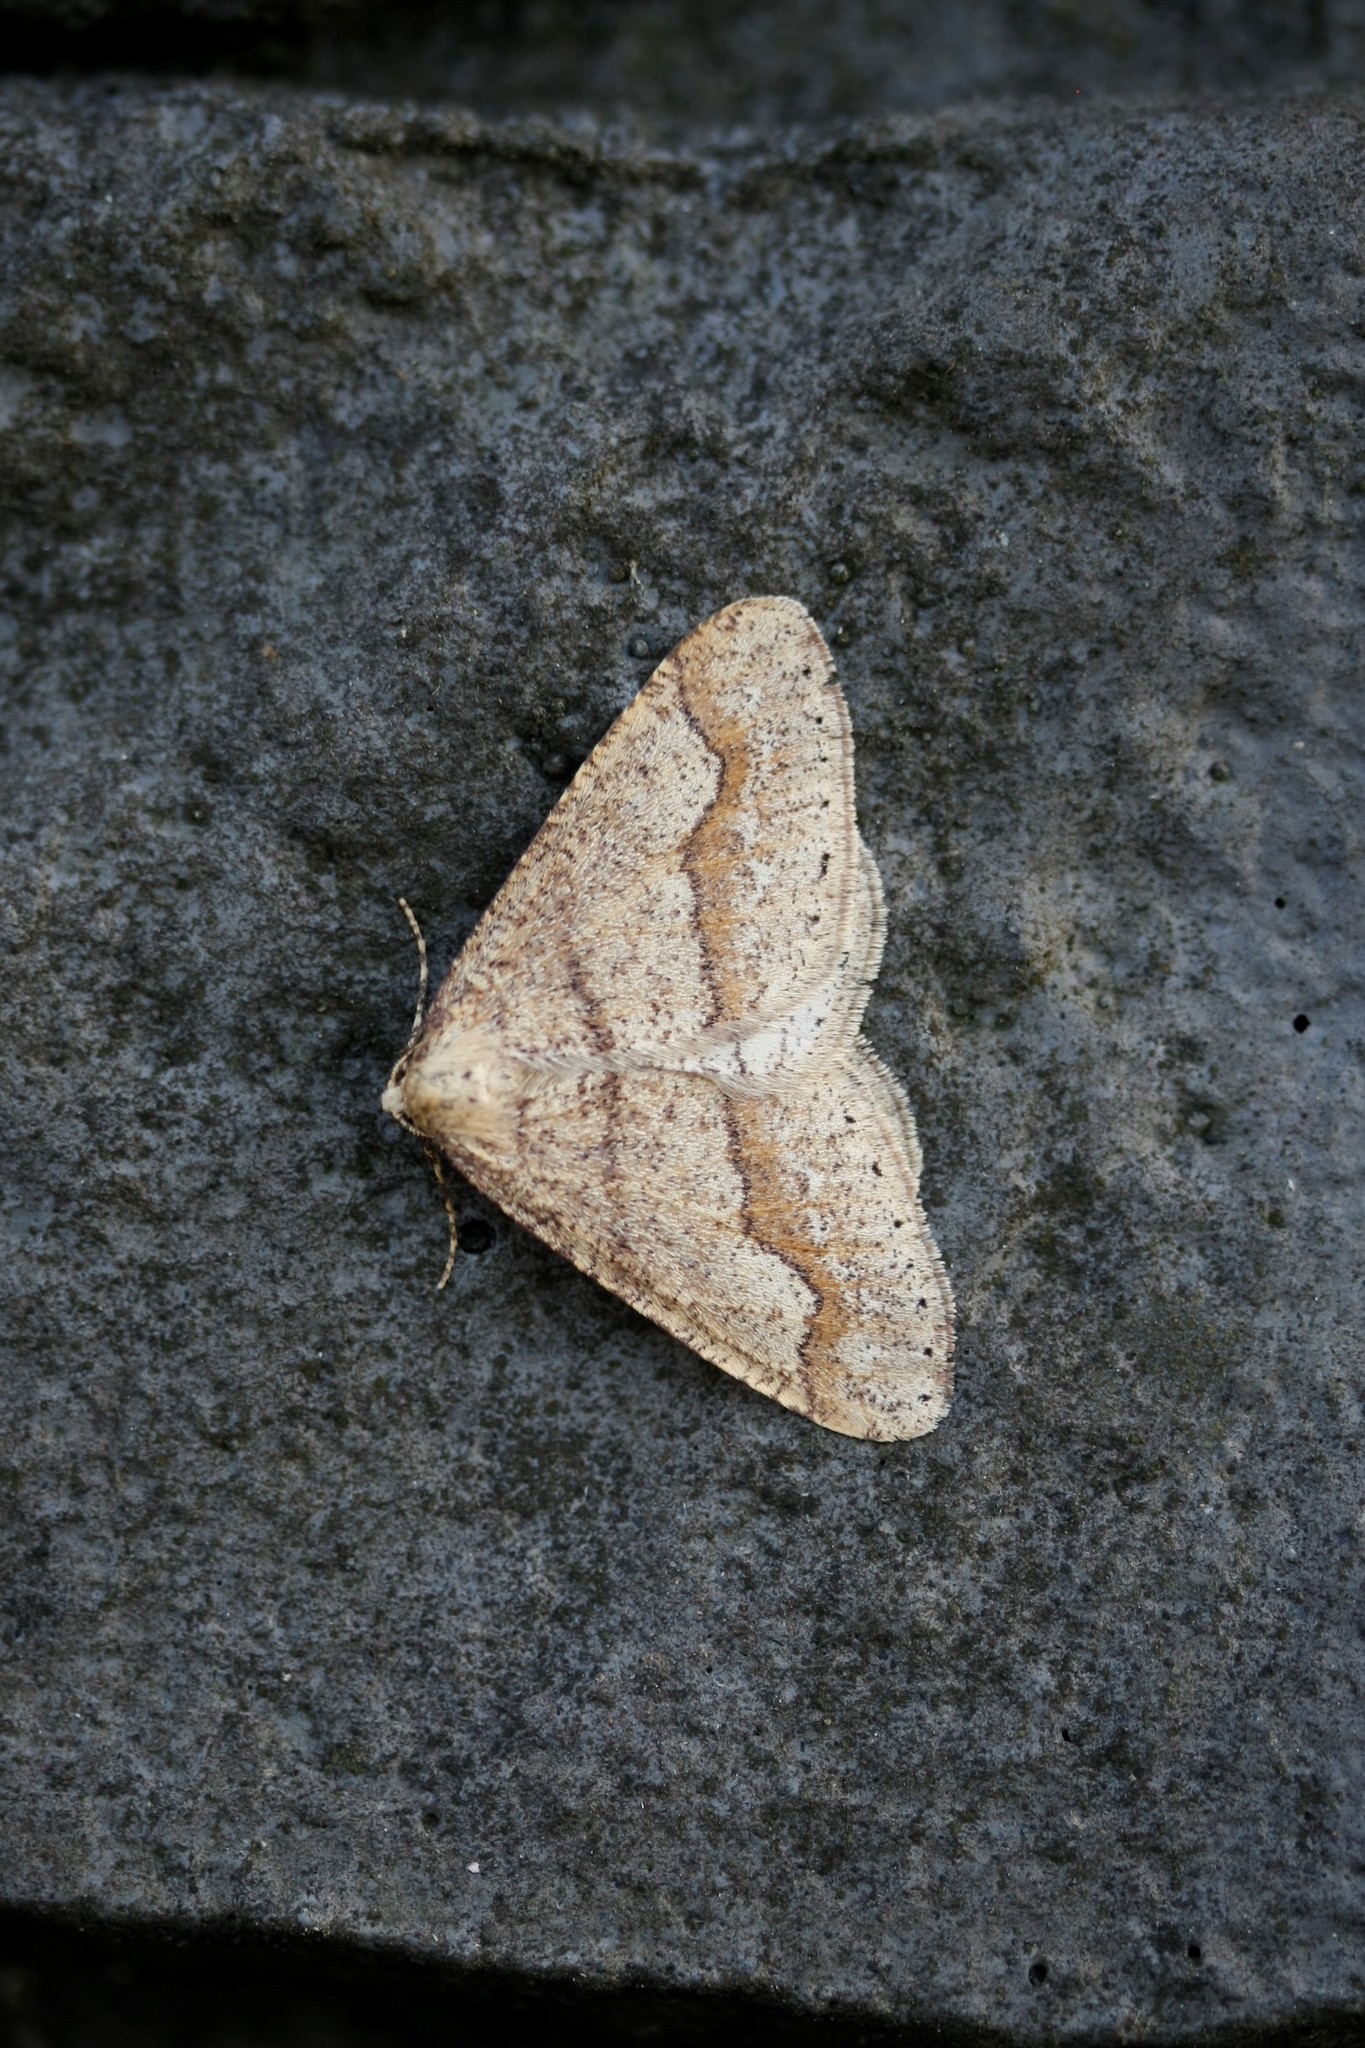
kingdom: Animalia
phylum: Arthropoda
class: Insecta
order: Lepidoptera
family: Geometridae
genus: Agriopis
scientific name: Agriopis marginaria
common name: Dotted border
